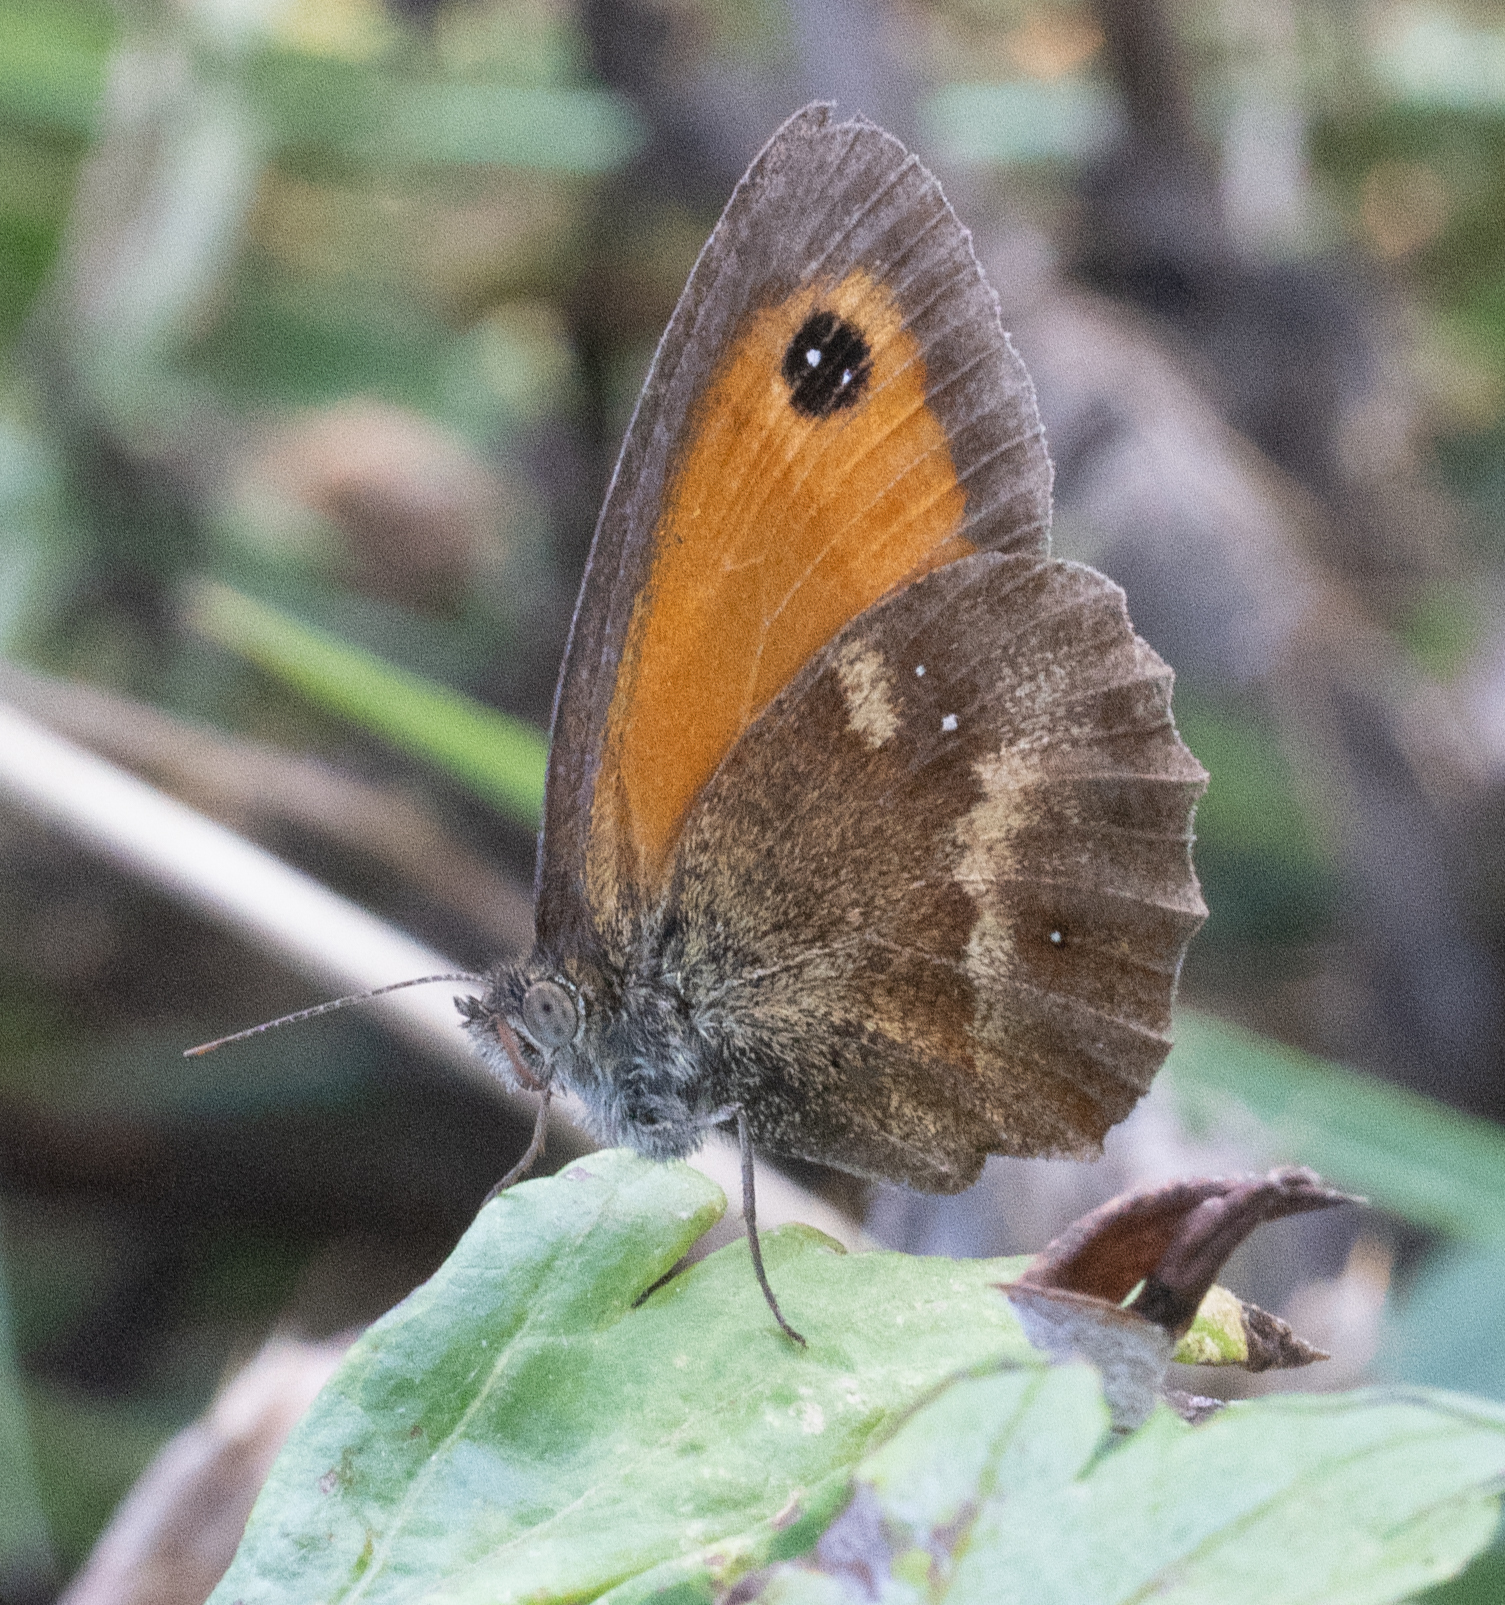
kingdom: Animalia
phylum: Arthropoda
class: Insecta
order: Lepidoptera
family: Nymphalidae
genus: Pyronia
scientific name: Pyronia tithonus
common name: Gatekeeper
